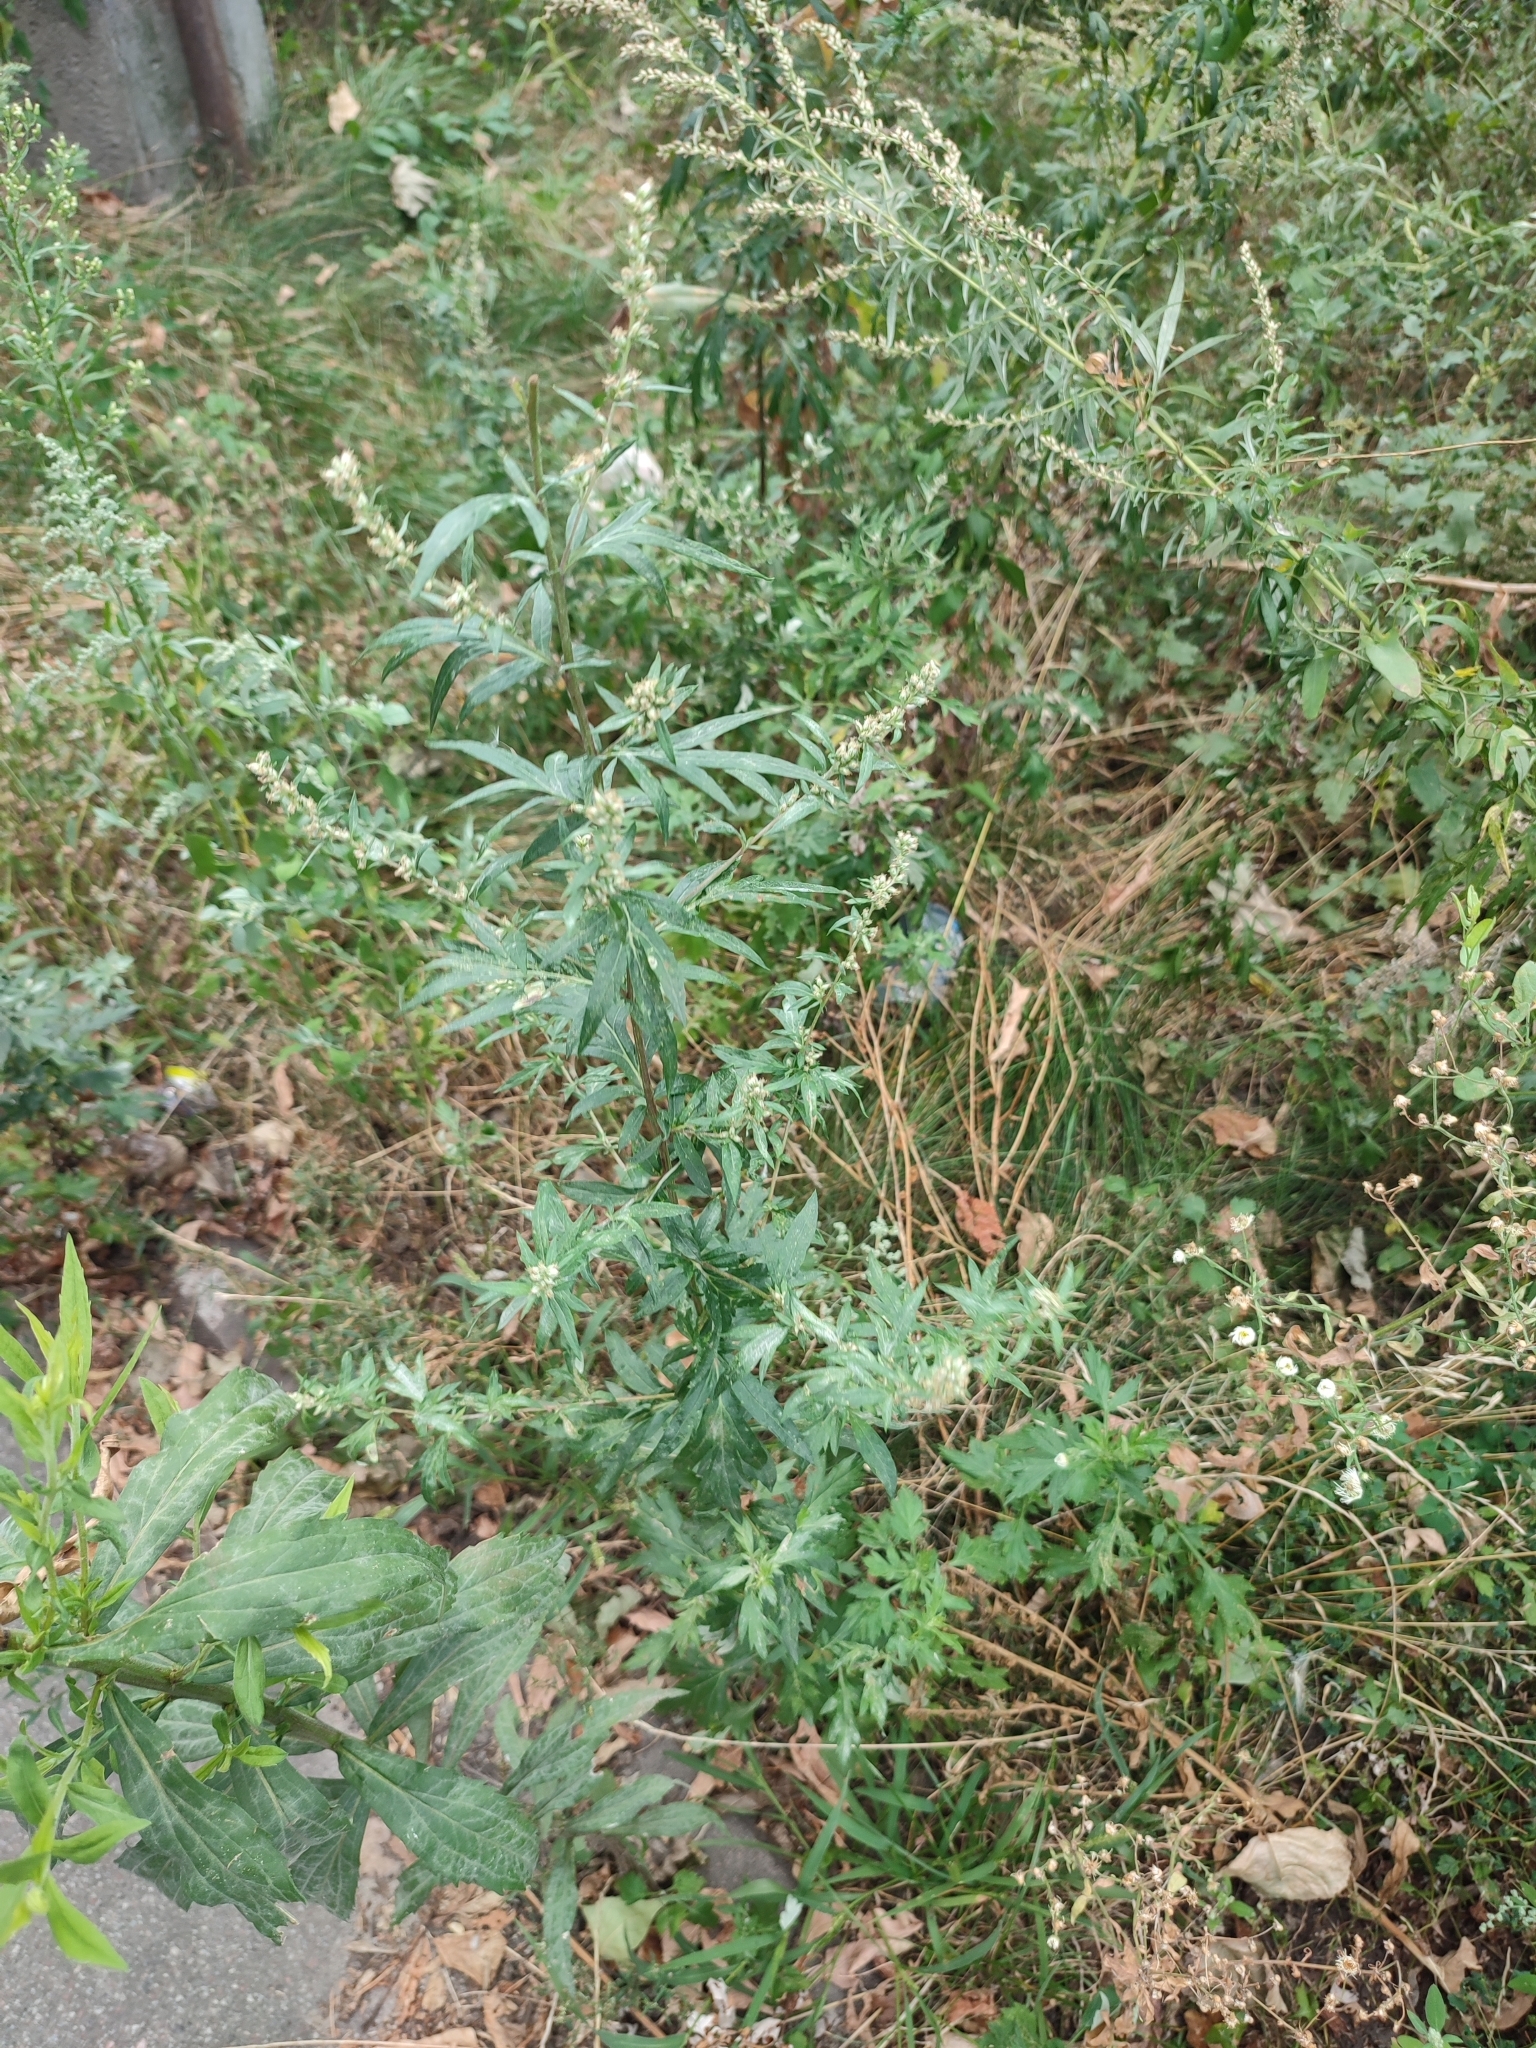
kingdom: Plantae
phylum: Tracheophyta
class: Magnoliopsida
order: Asterales
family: Asteraceae
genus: Artemisia
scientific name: Artemisia vulgaris
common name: Mugwort
